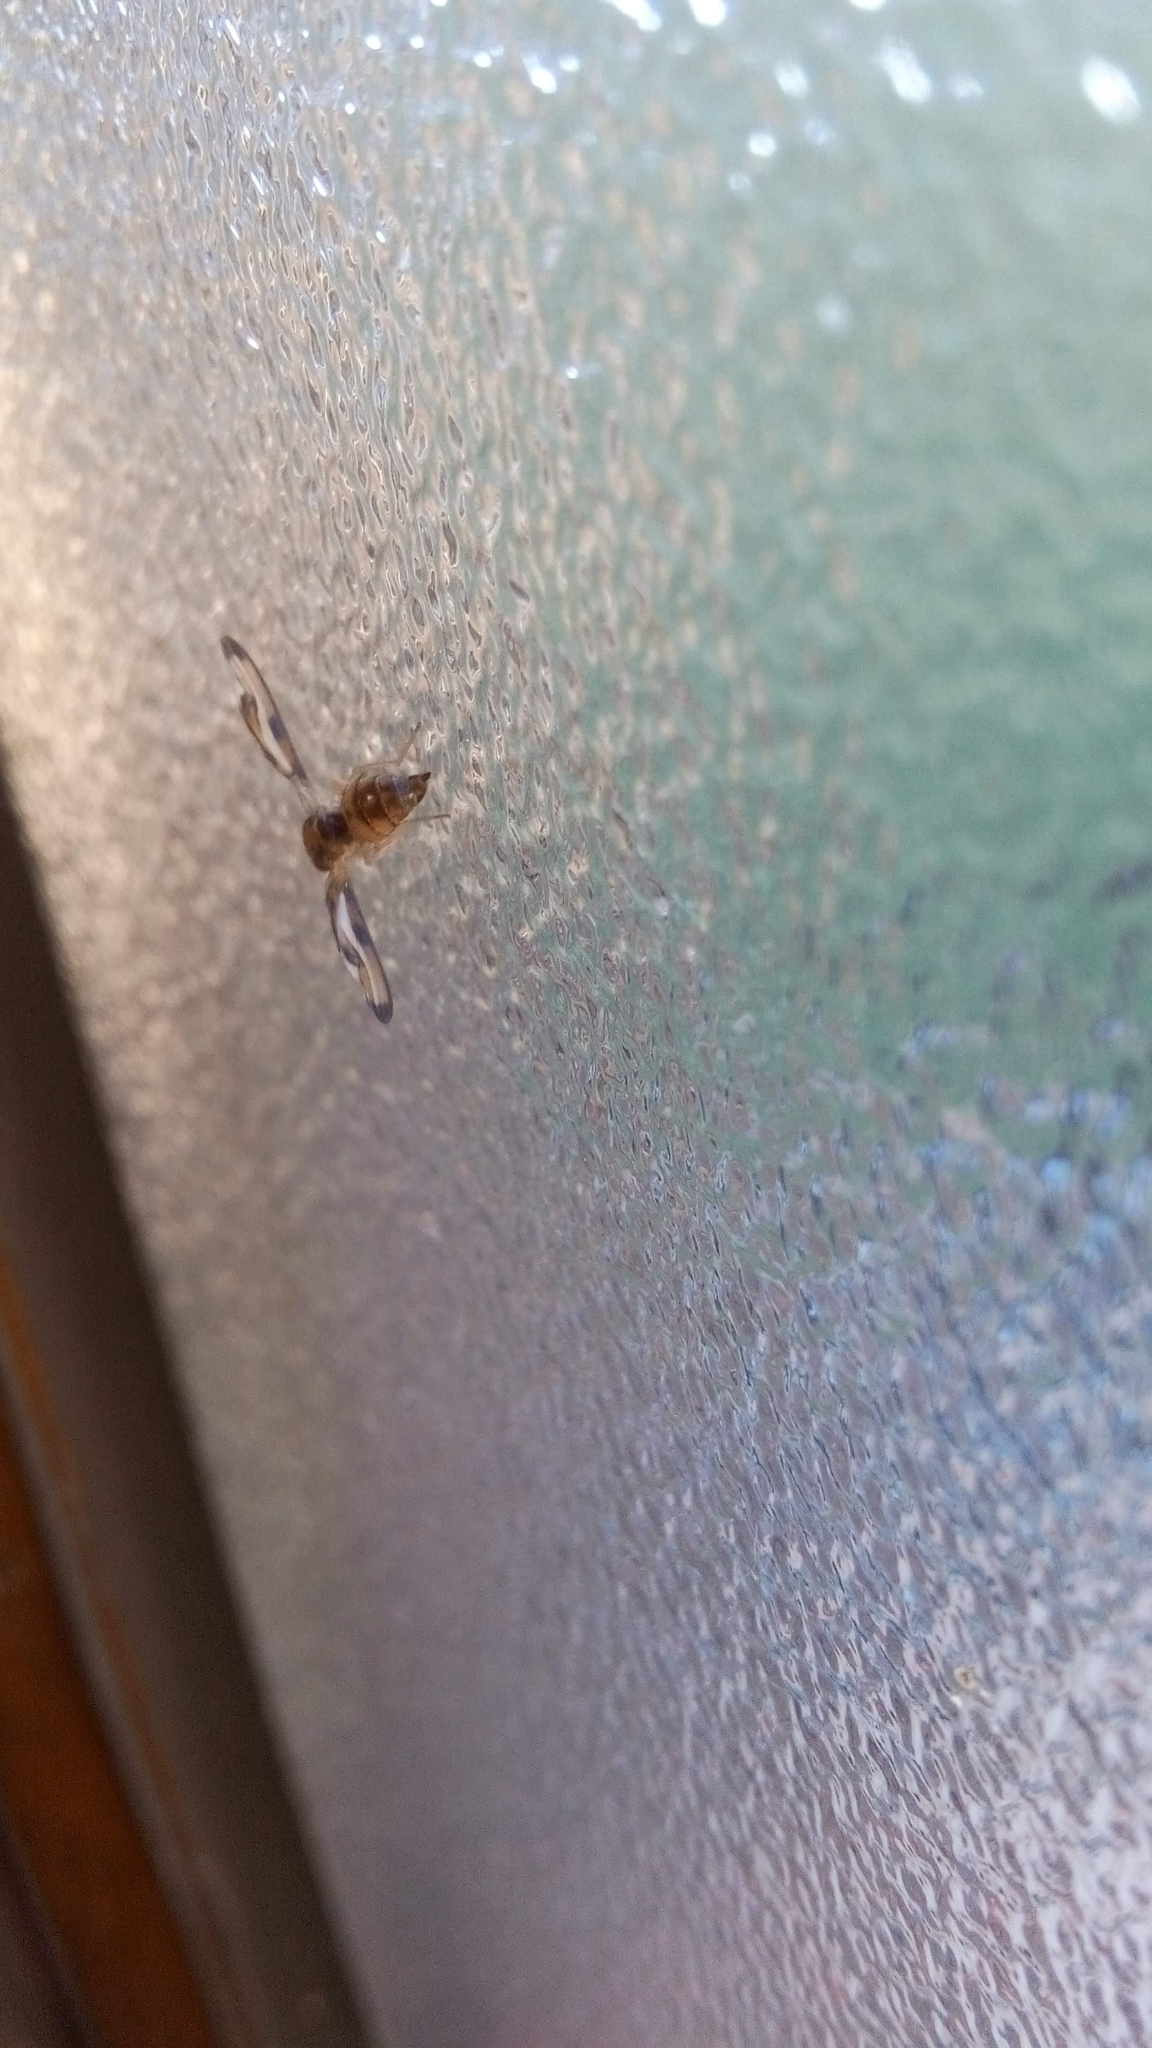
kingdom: Animalia
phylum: Arthropoda
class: Insecta
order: Diptera
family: Pallopteridae
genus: Toxonevra
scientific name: Toxonevra muliebris
